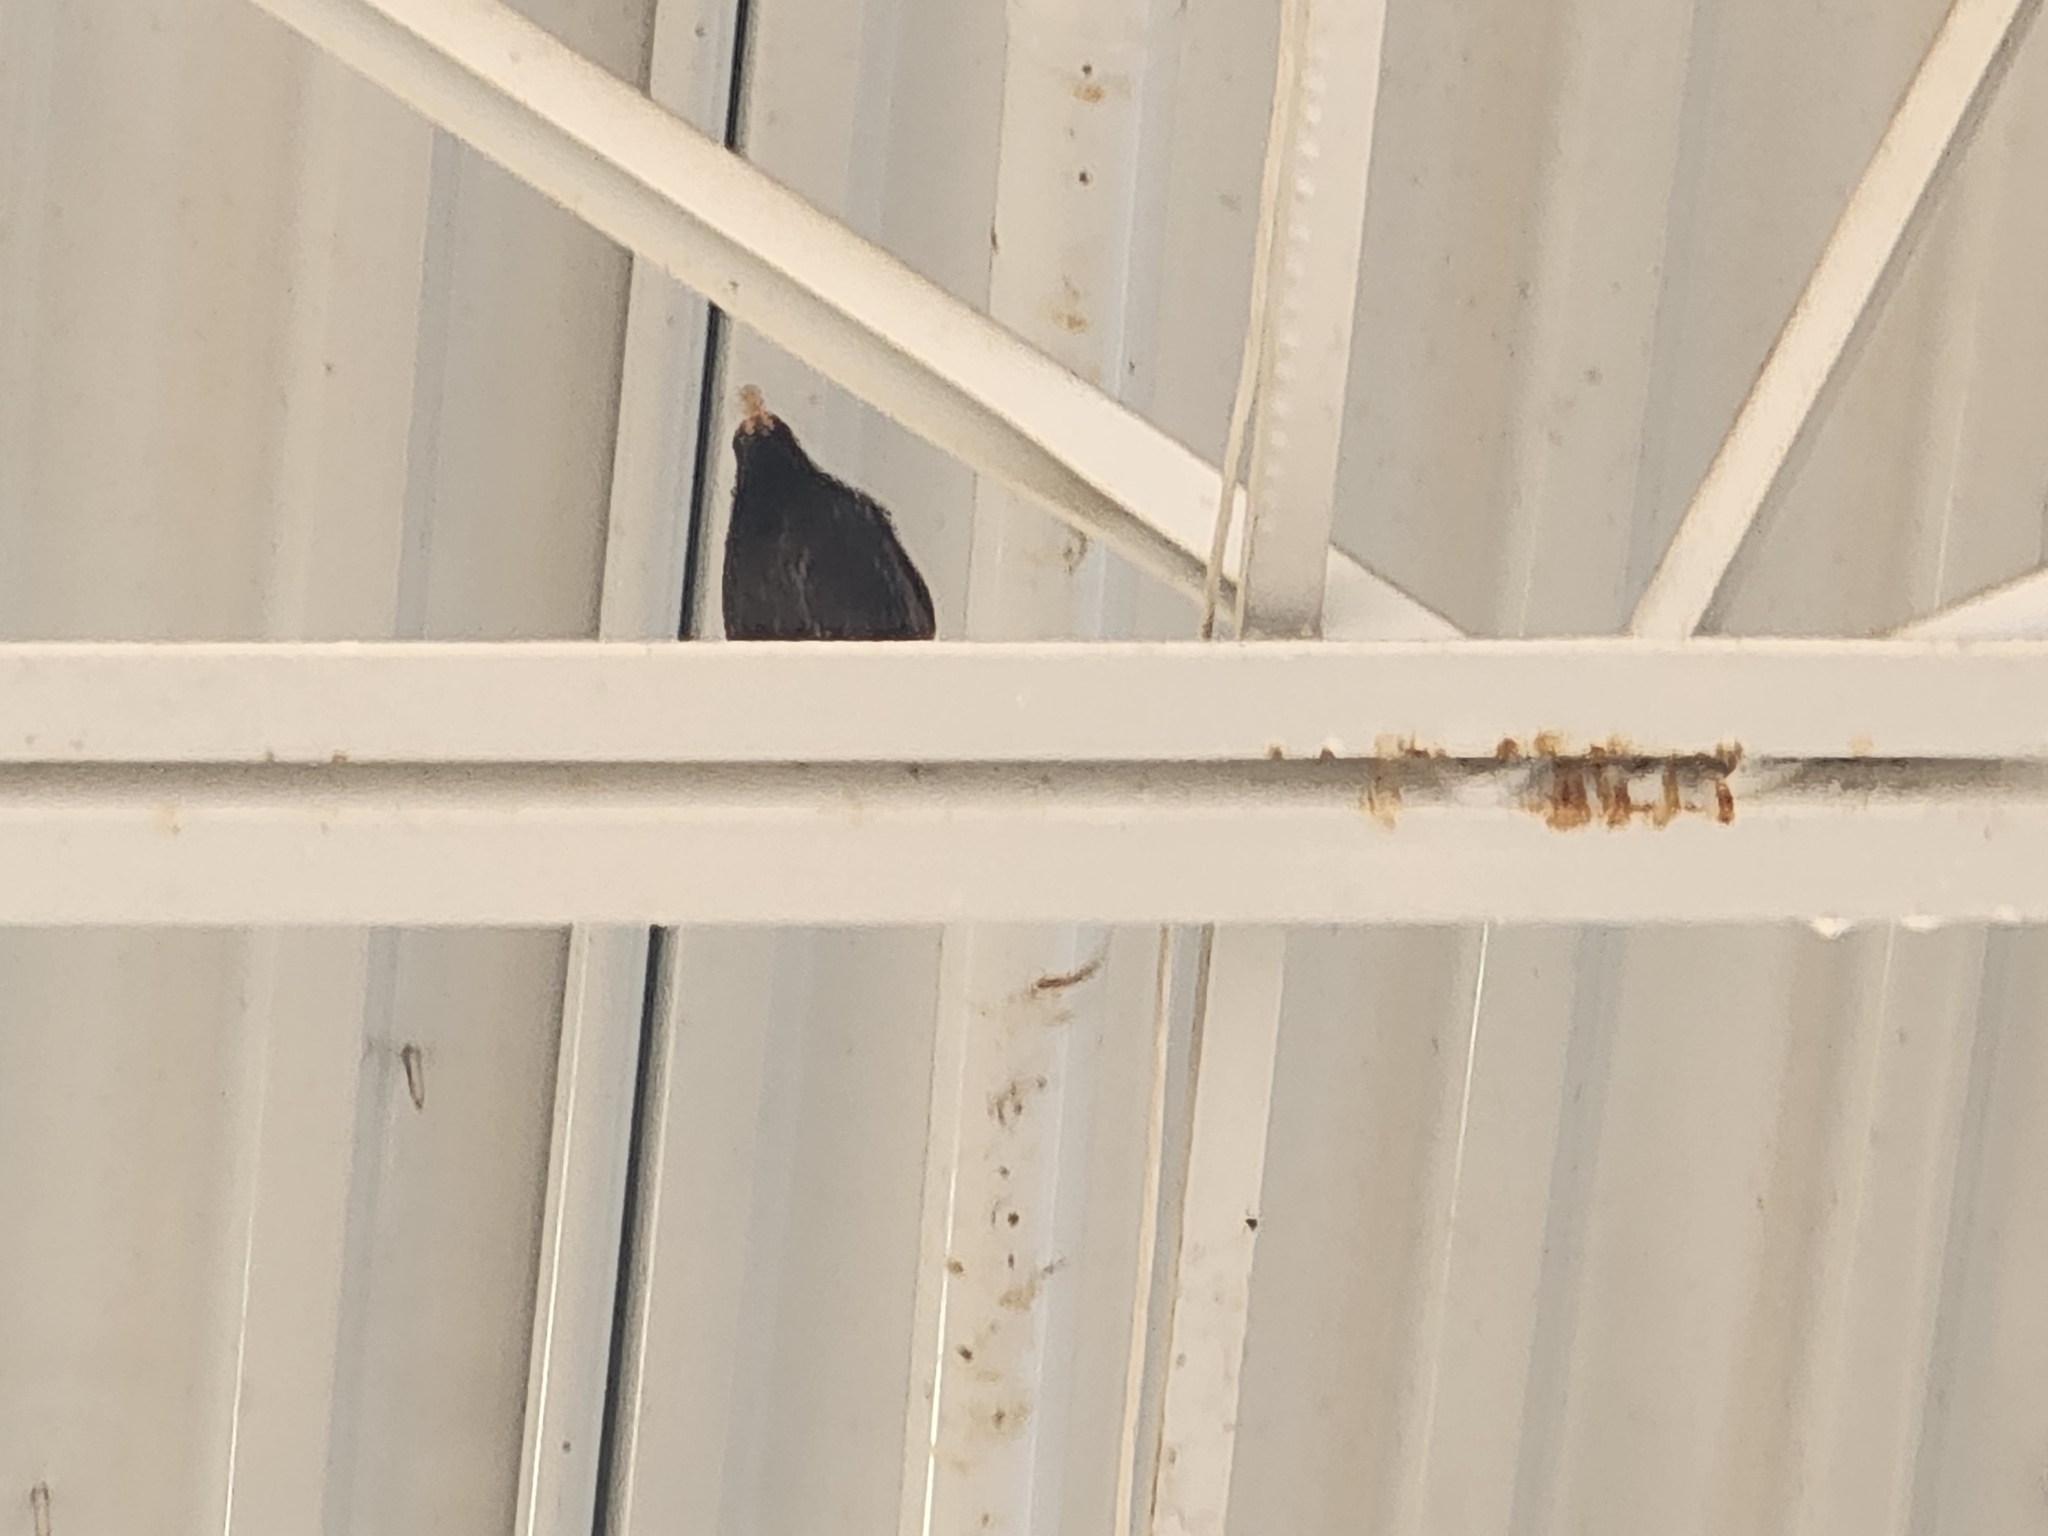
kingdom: Animalia
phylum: Chordata
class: Aves
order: Passeriformes
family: Sturnidae
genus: Sturnus
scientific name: Sturnus vulgaris
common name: Common starling
